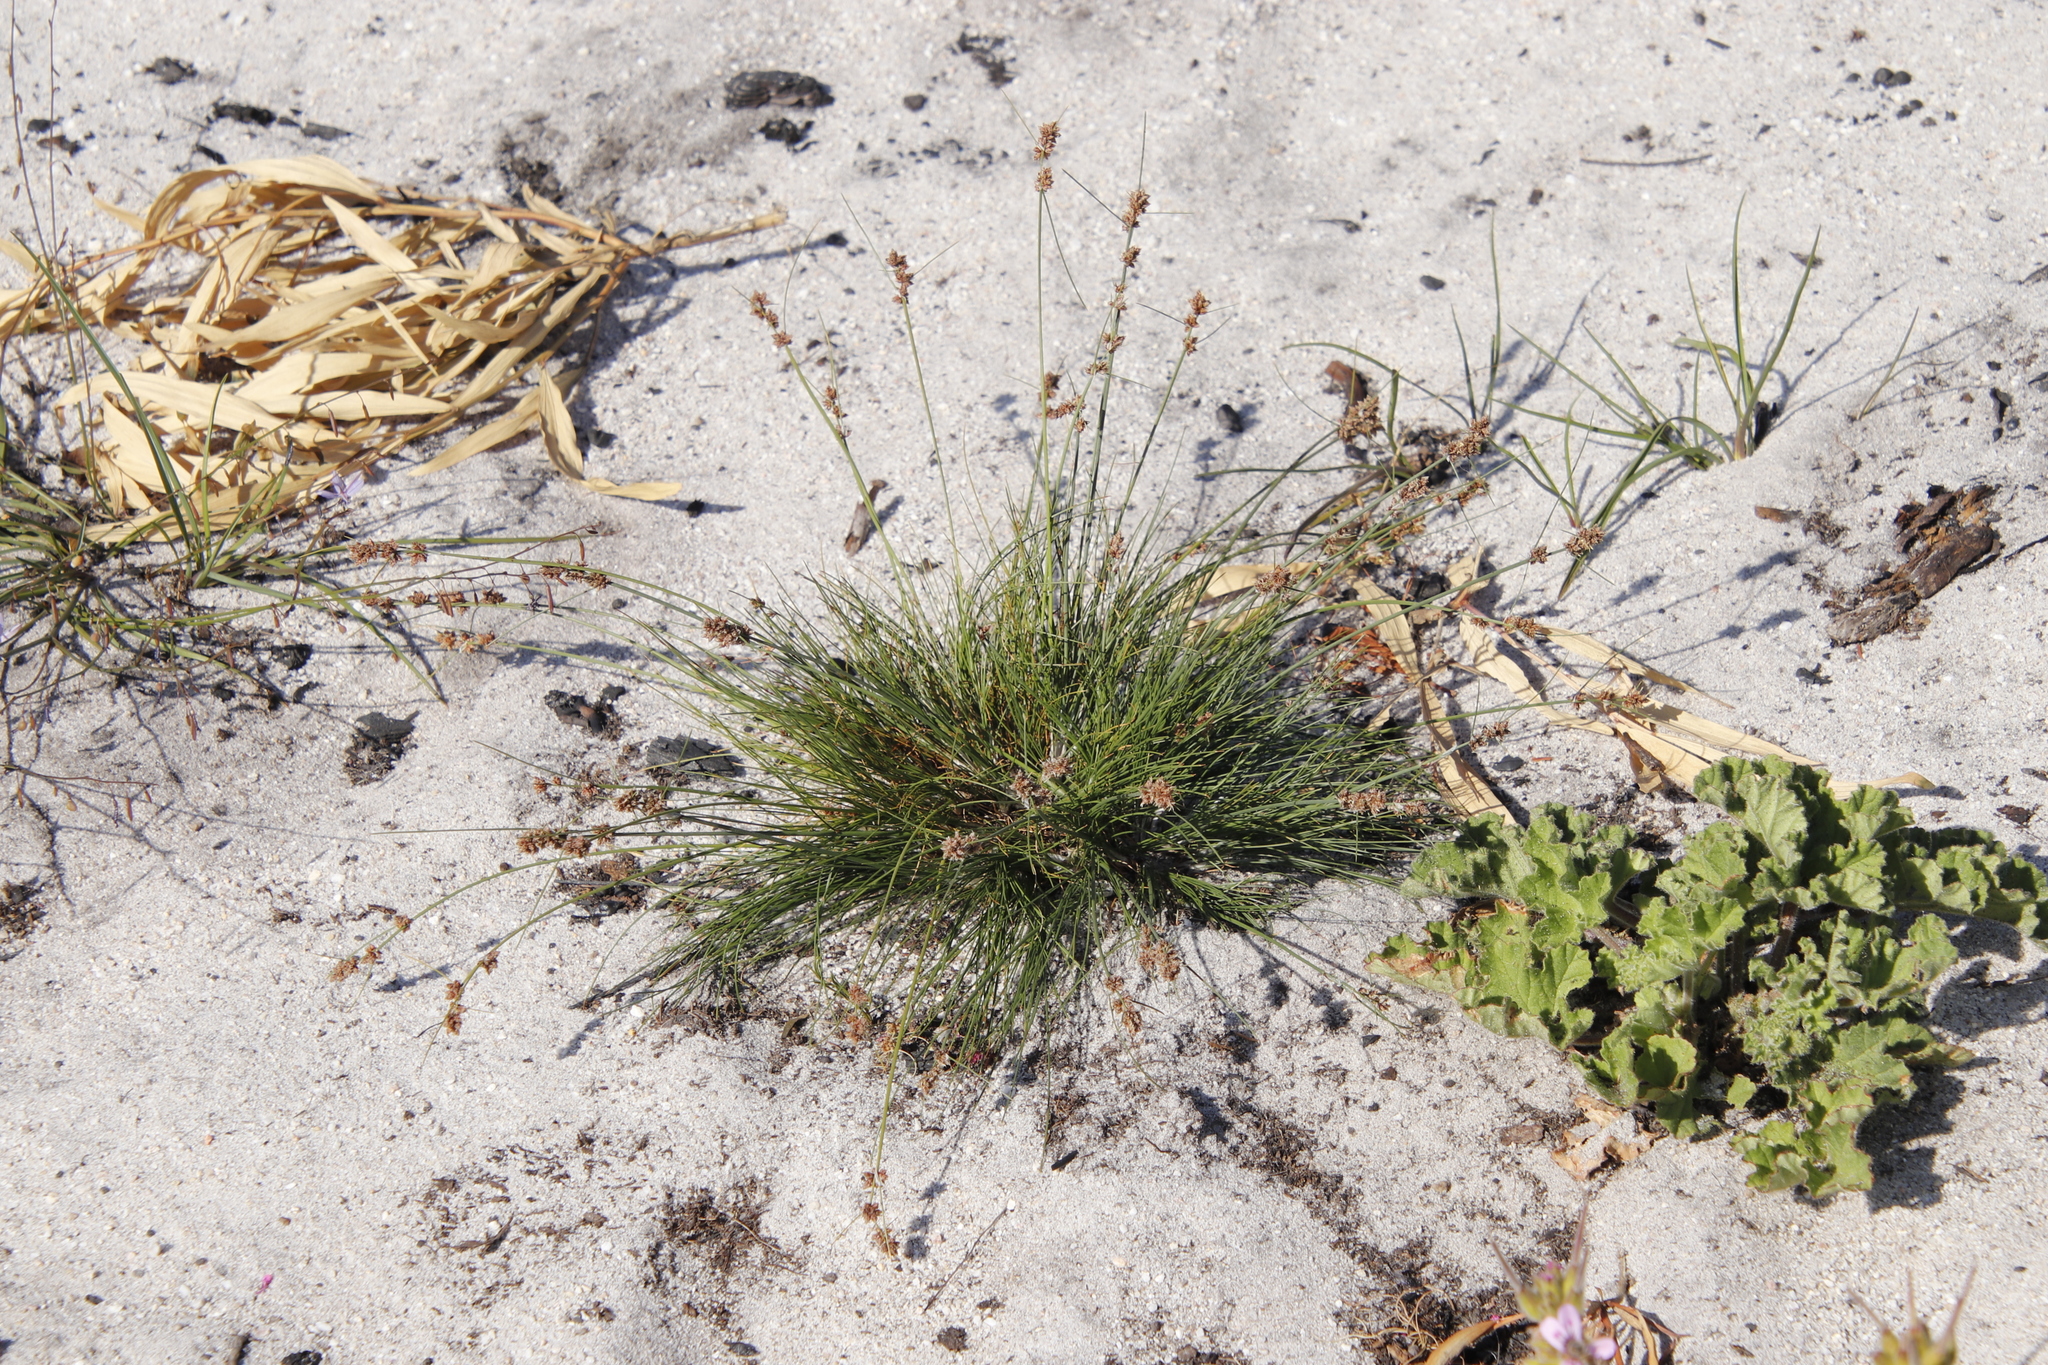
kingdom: Plantae
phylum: Tracheophyta
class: Liliopsida
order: Poales
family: Cyperaceae
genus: Ficinia
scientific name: Ficinia bulbosa
